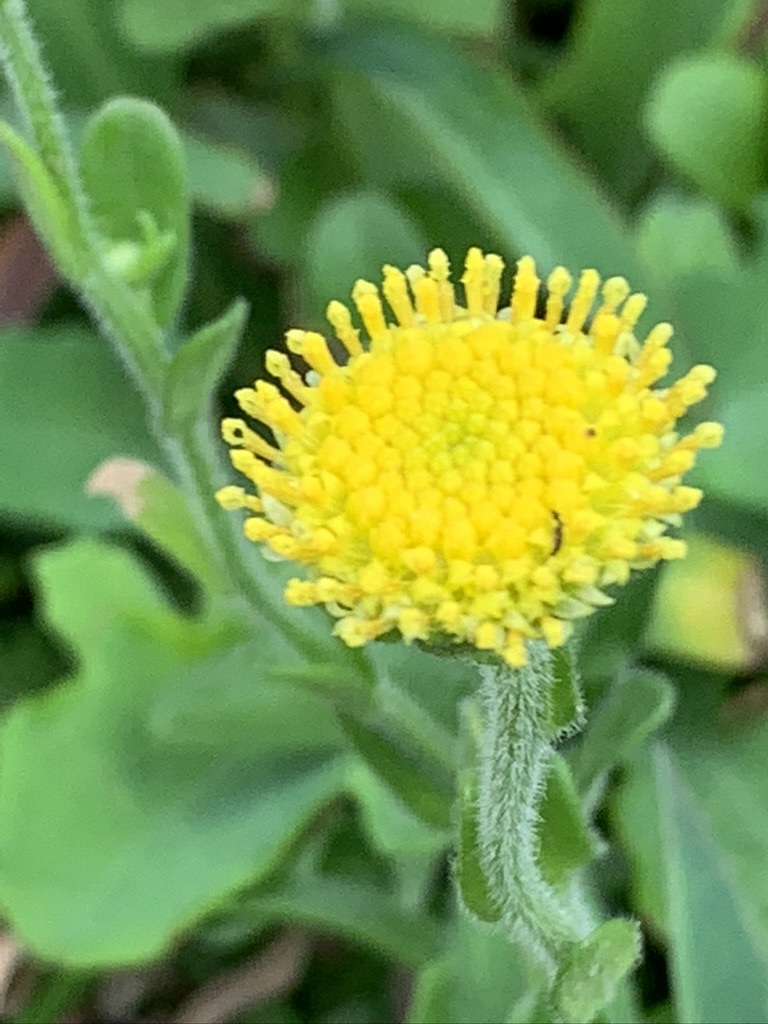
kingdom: Plantae
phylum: Tracheophyta
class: Magnoliopsida
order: Asterales
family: Asteraceae
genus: Heteropappus
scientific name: Heteropappus oldhamii
